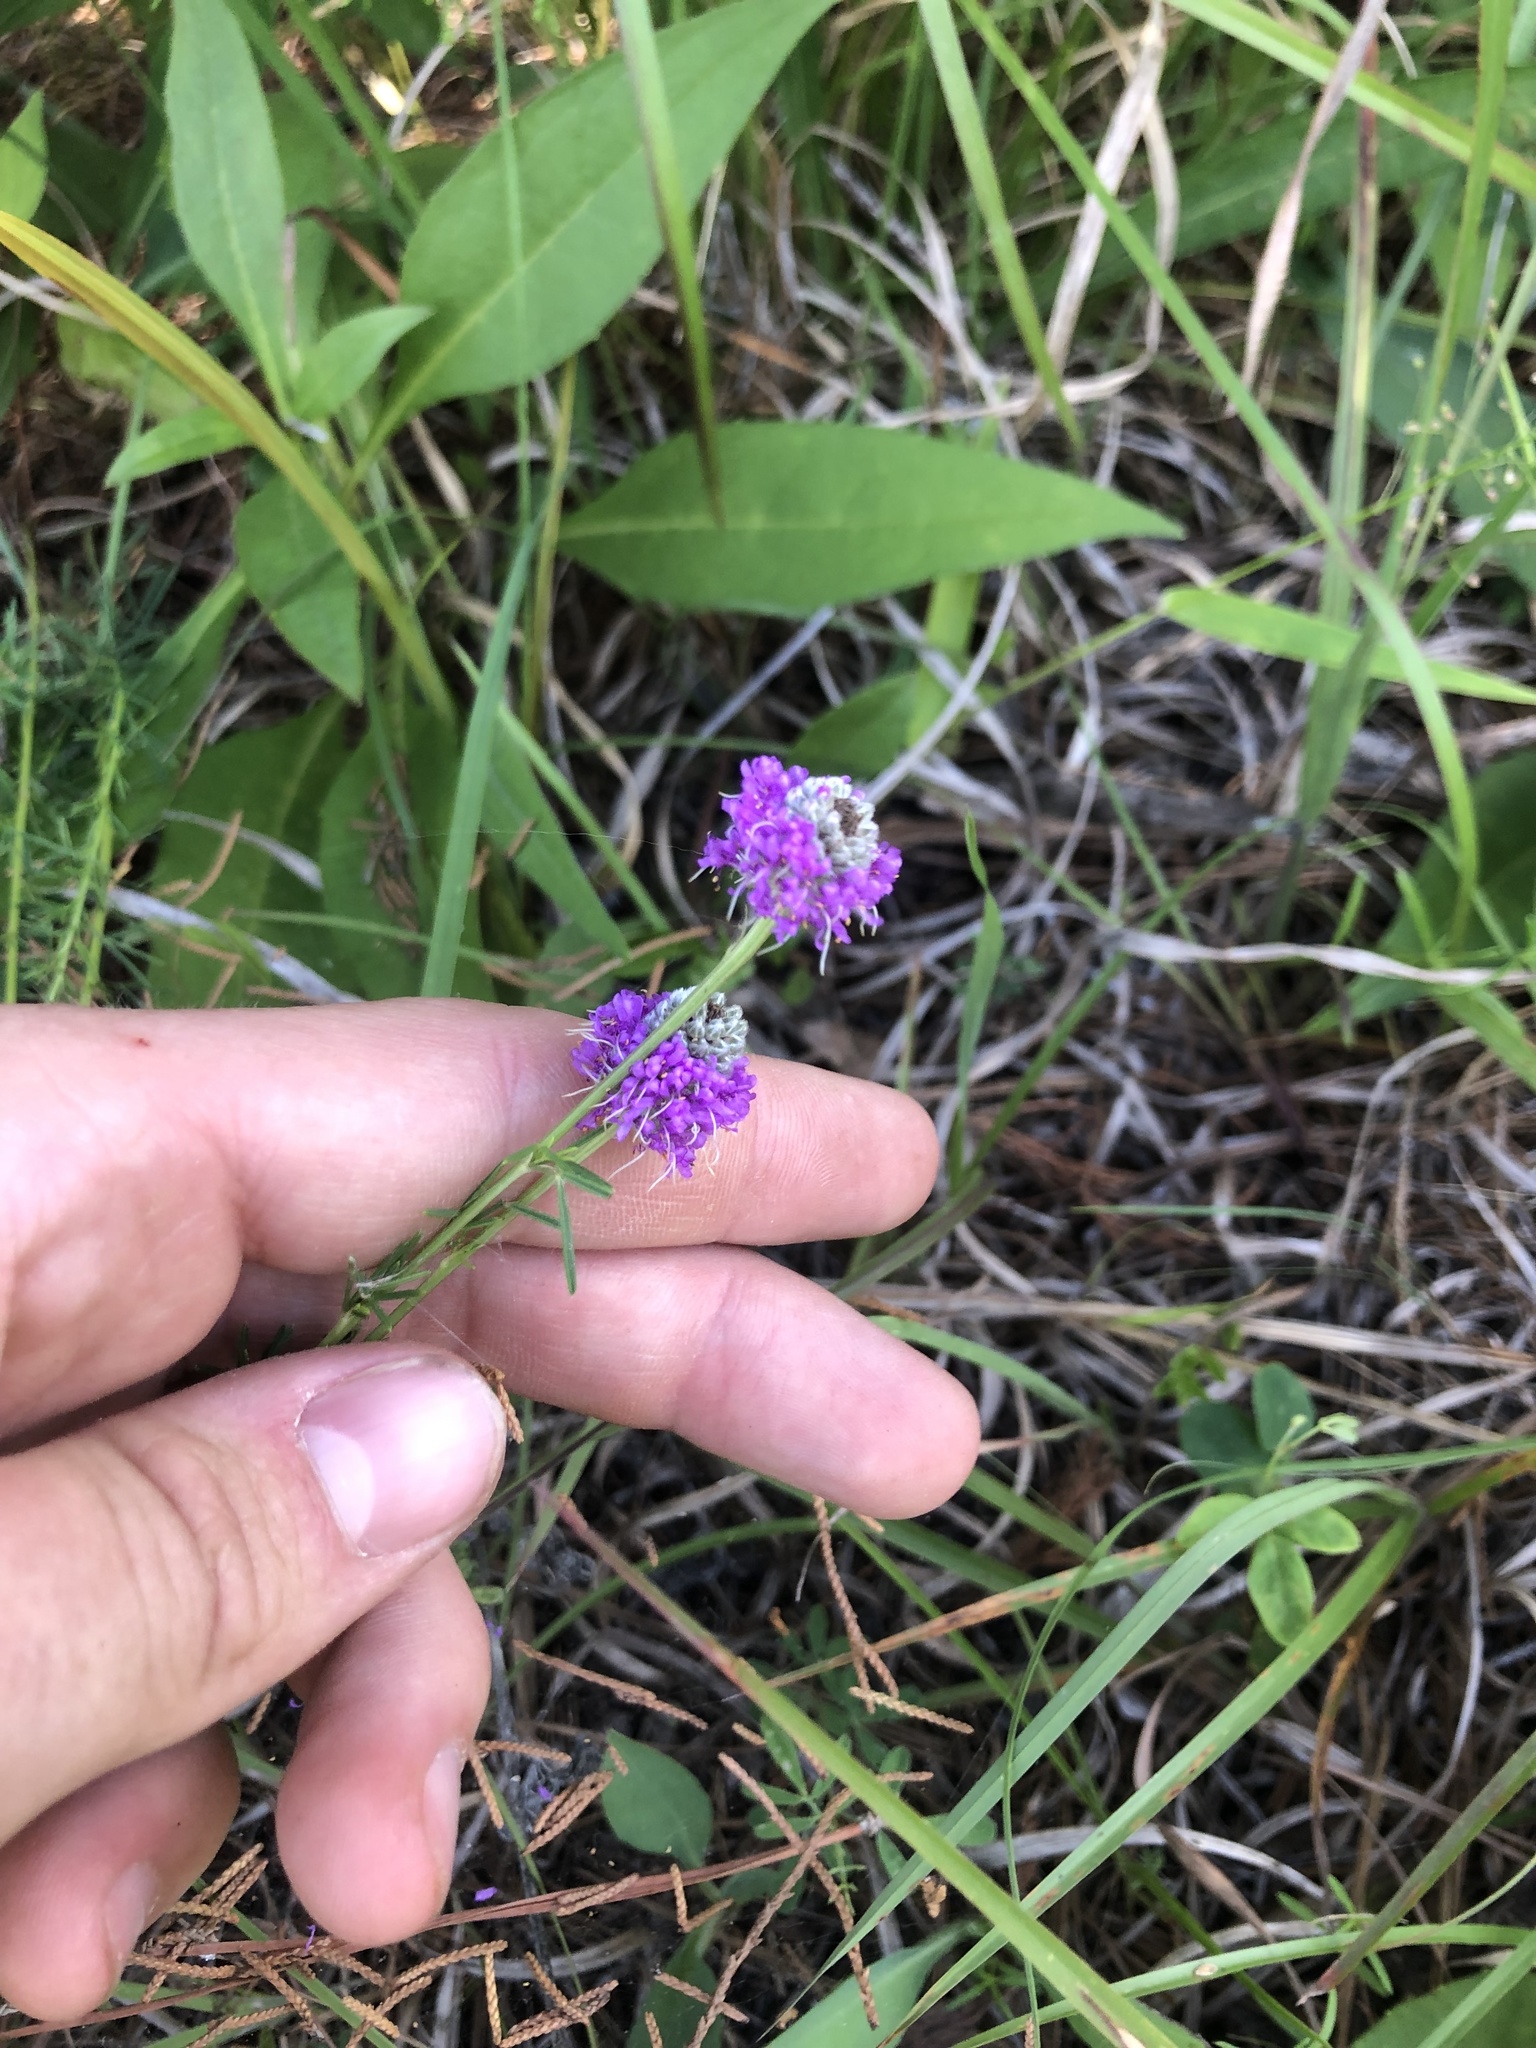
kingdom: Plantae
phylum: Tracheophyta
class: Magnoliopsida
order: Fabales
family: Fabaceae
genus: Dalea
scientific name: Dalea purpurea
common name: Purple prairie-clover
